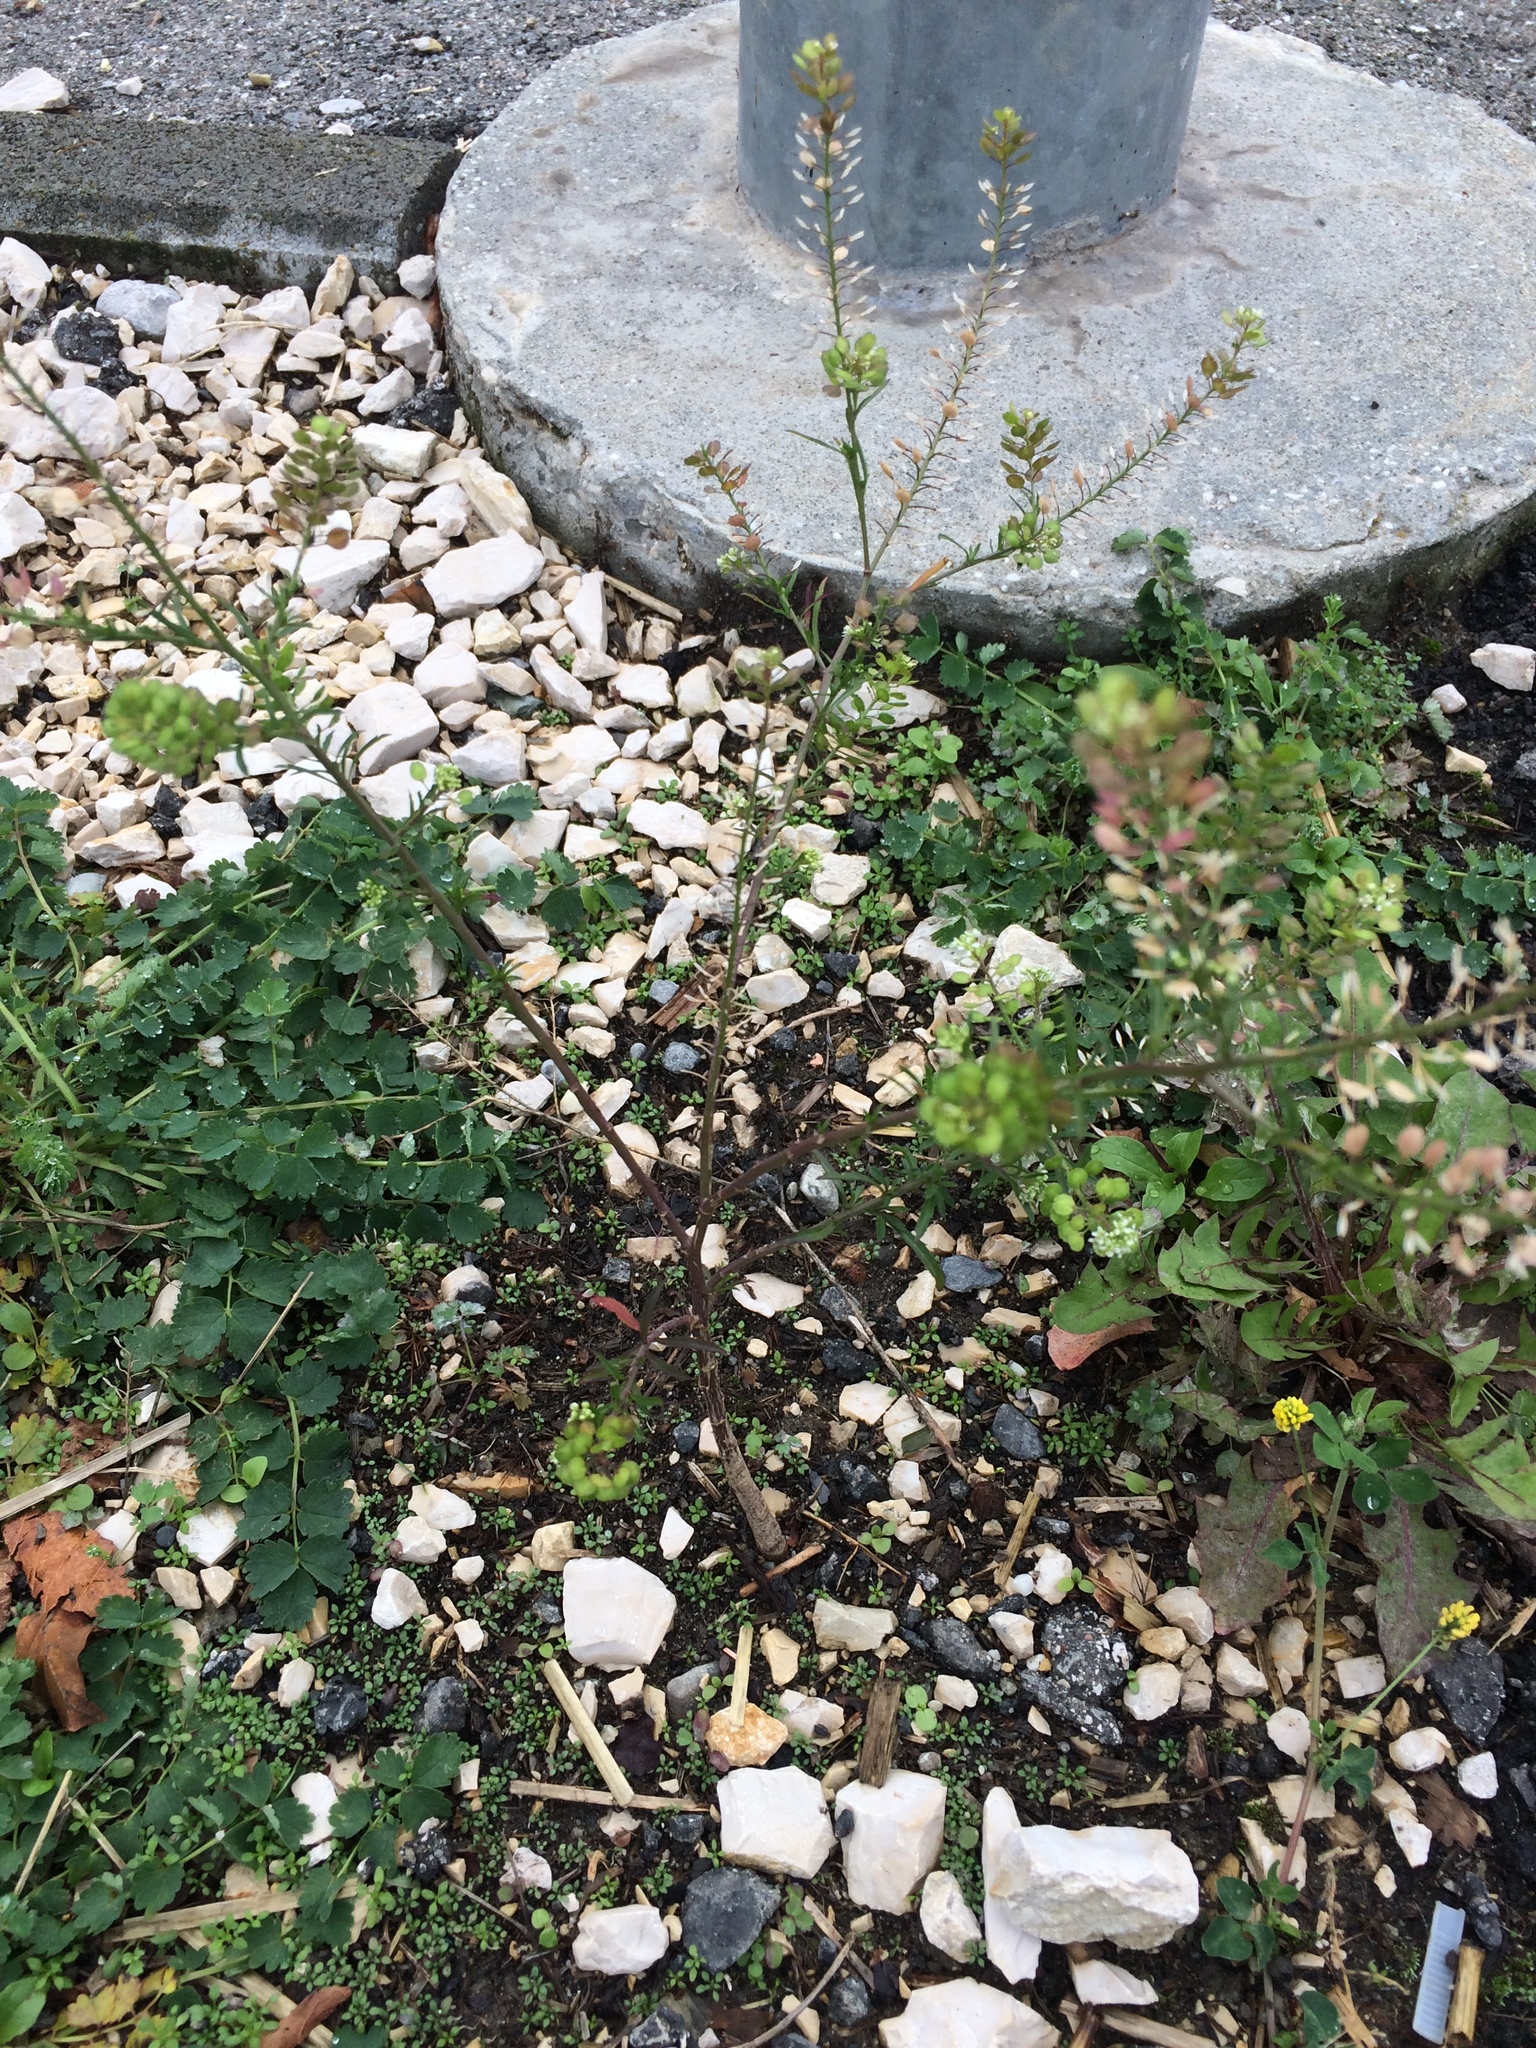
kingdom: Plantae
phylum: Tracheophyta
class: Magnoliopsida
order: Brassicales
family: Brassicaceae
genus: Lepidium
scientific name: Lepidium virginicum
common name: Least pepperwort
